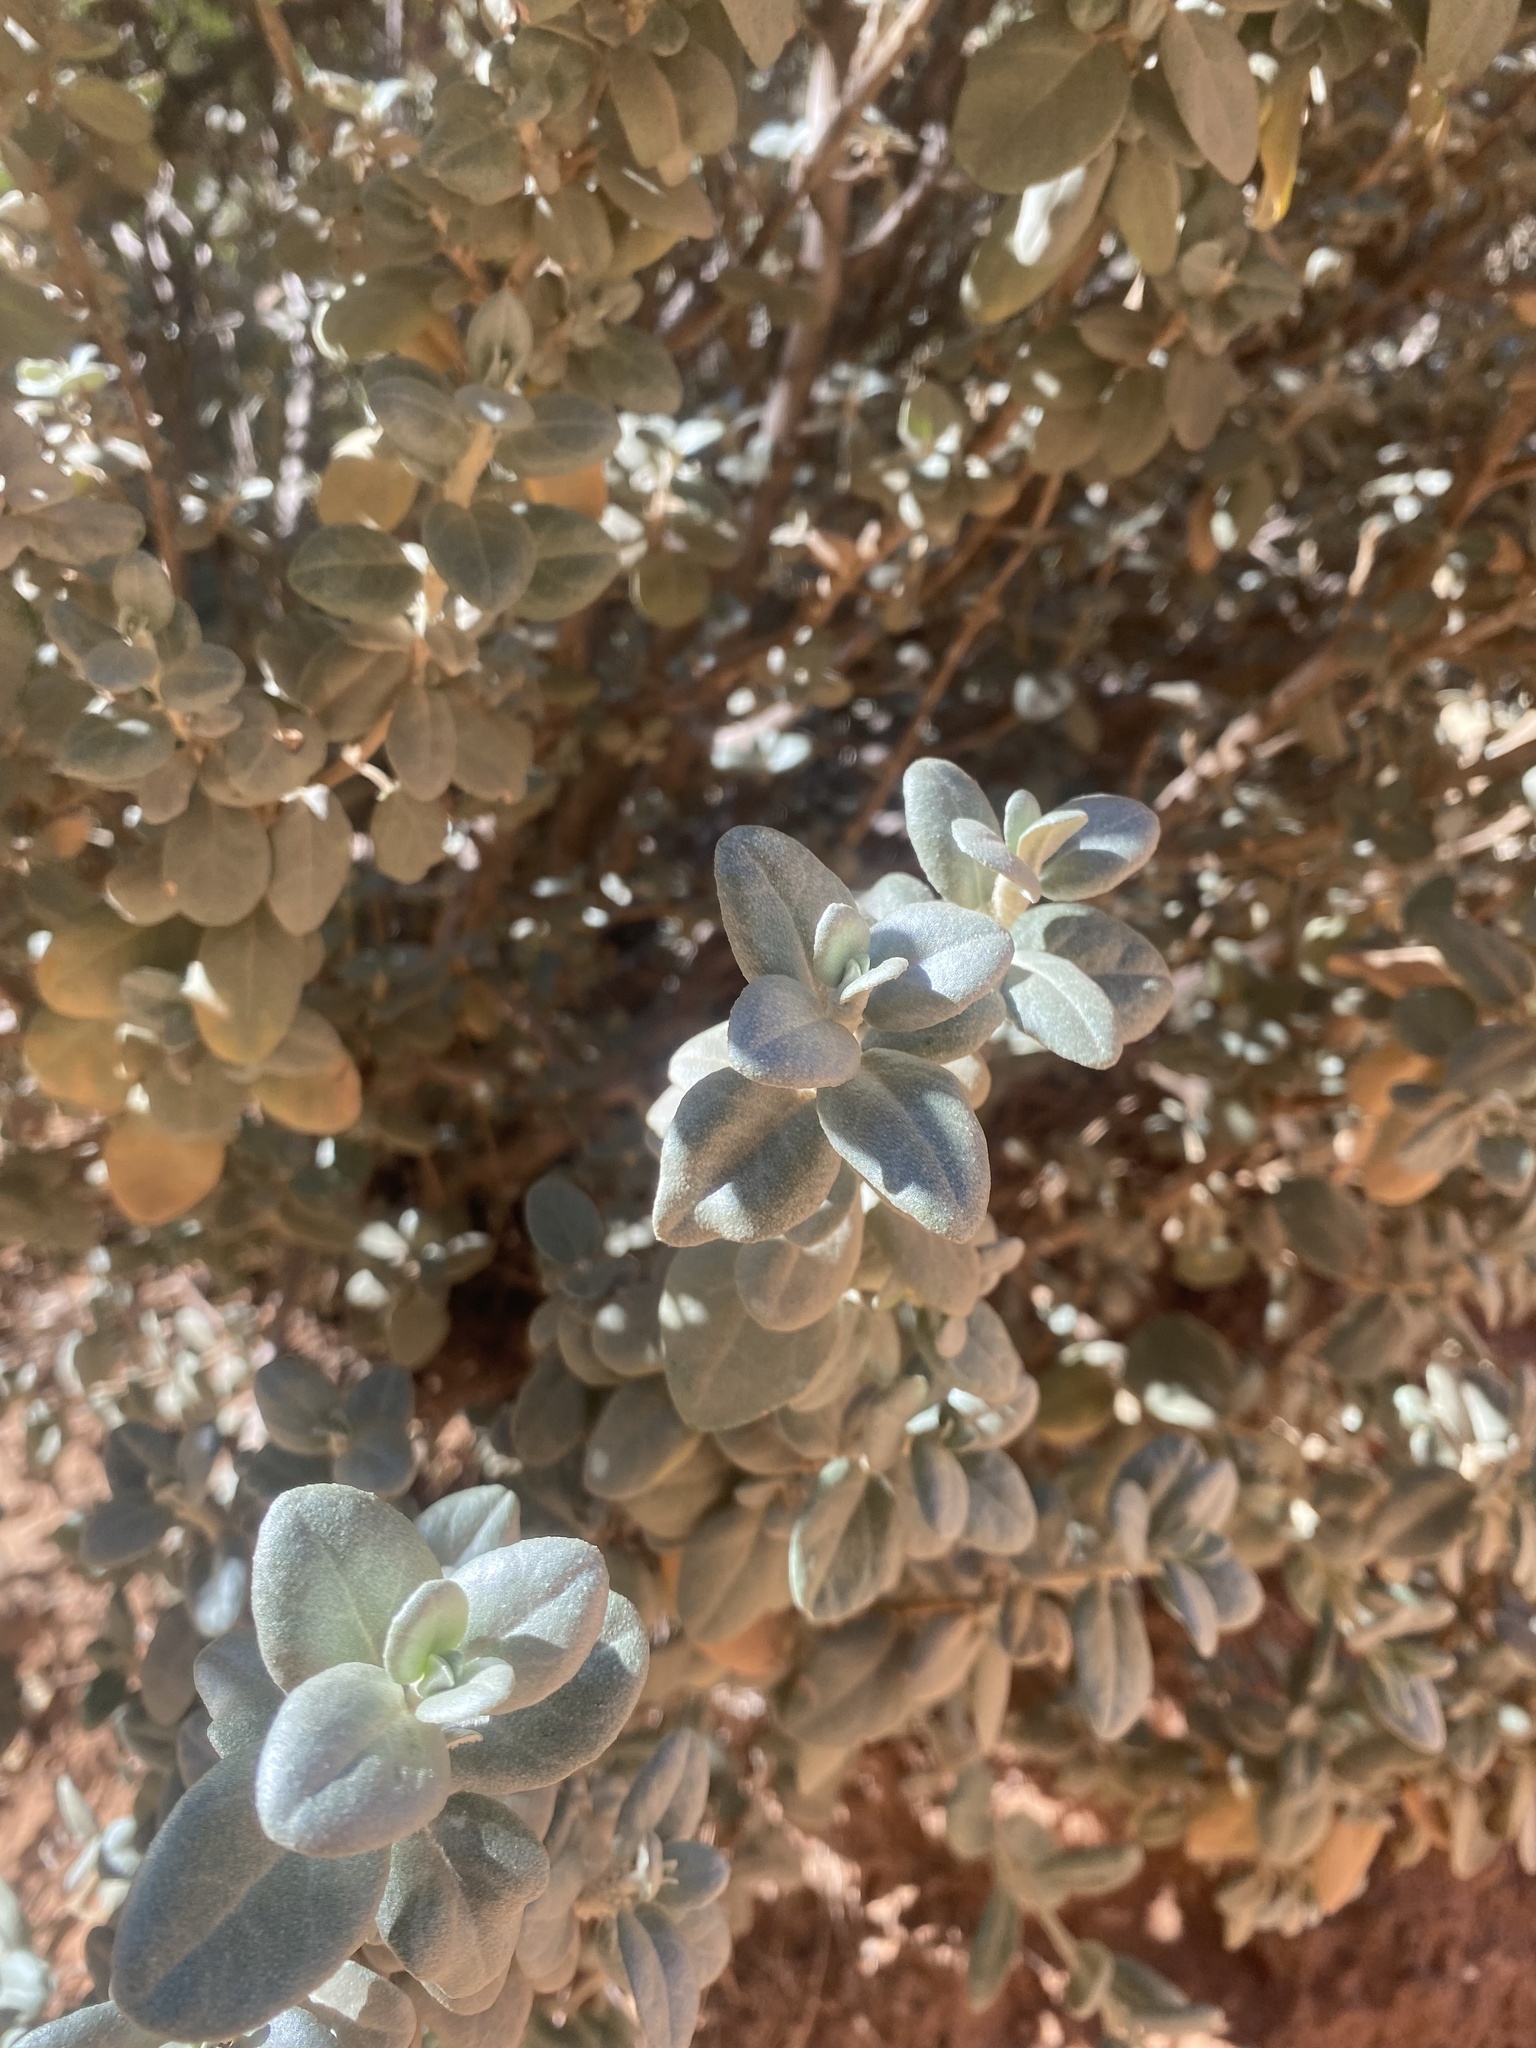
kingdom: Plantae
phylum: Tracheophyta
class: Magnoliopsida
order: Rosales
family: Elaeagnaceae
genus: Shepherdia
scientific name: Shepherdia rotundifolia
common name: Silverscale
